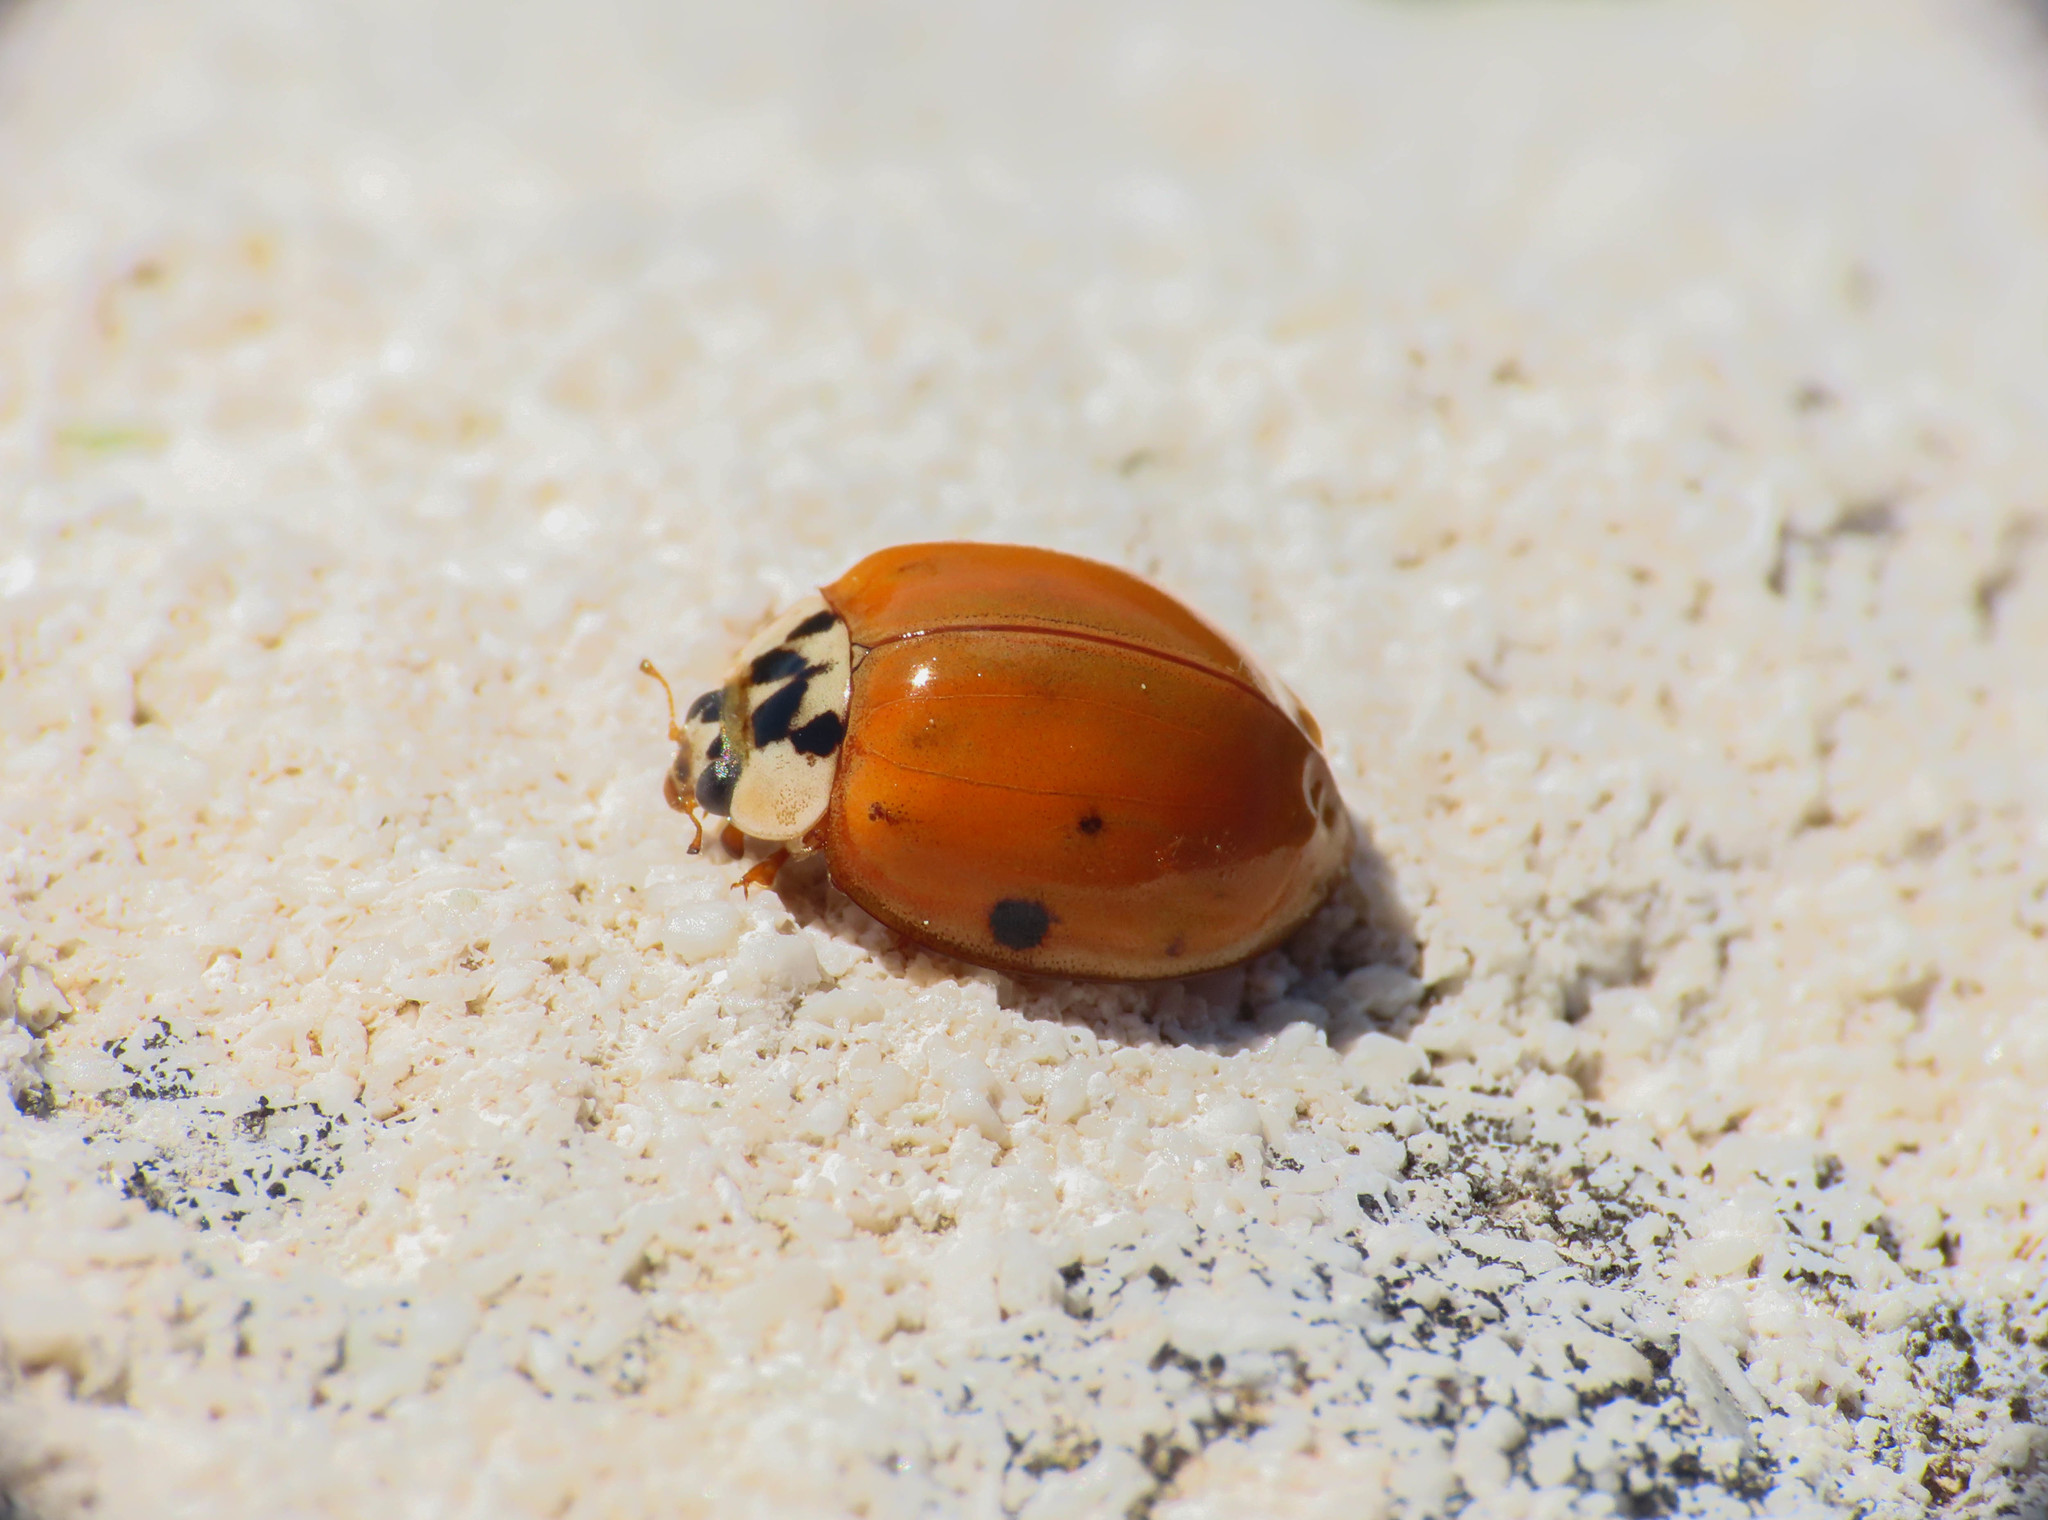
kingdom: Animalia
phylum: Arthropoda
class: Insecta
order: Coleoptera
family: Coccinellidae
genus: Harmonia
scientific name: Harmonia axyridis
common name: Harlequin ladybird
